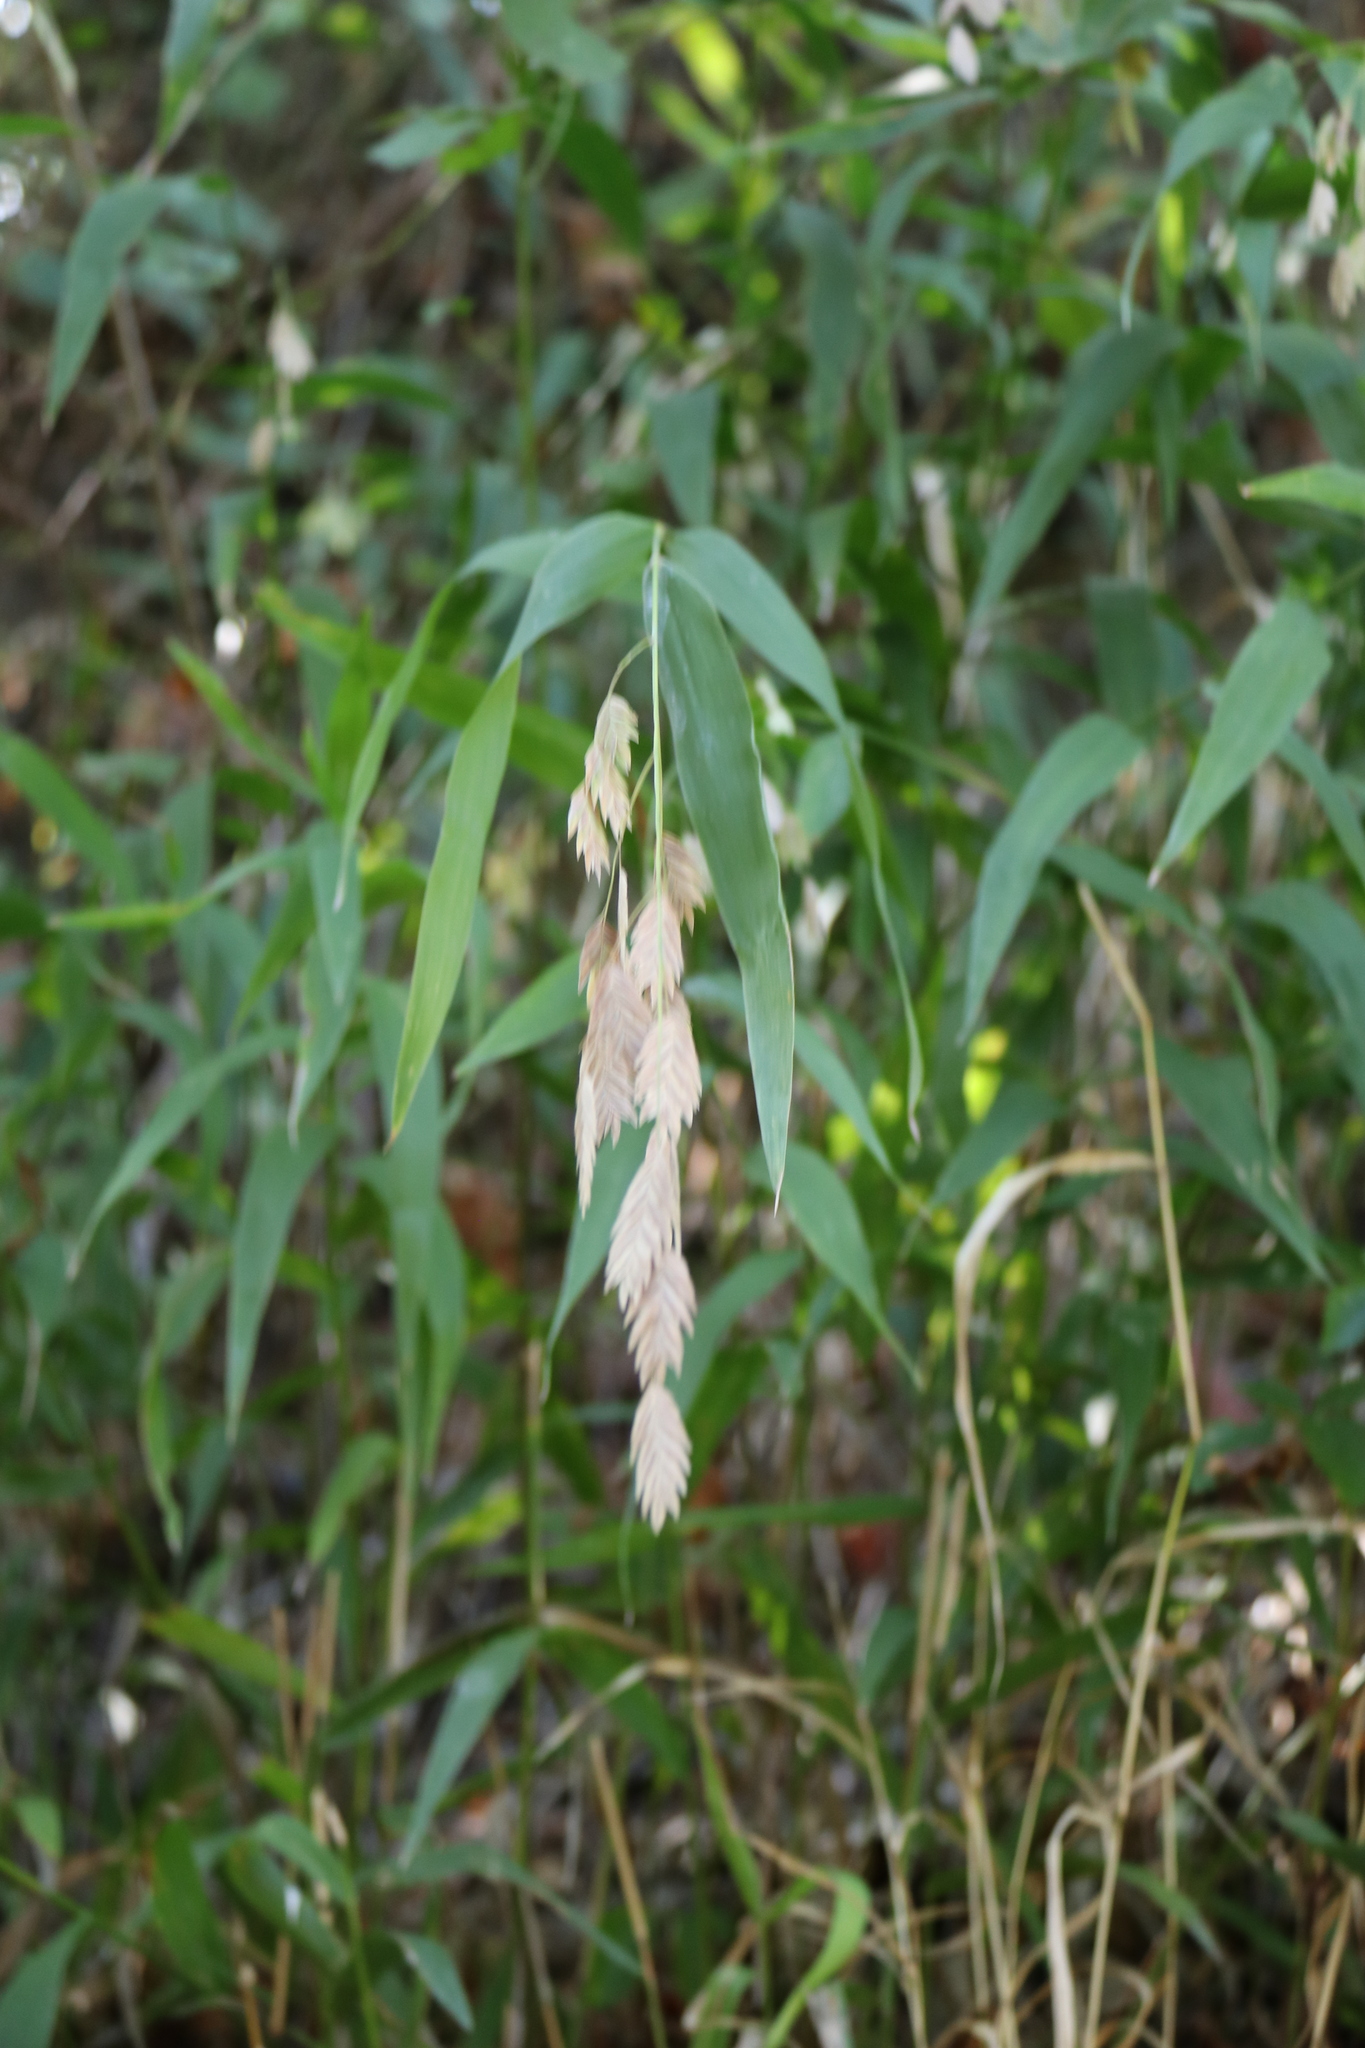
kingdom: Plantae
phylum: Tracheophyta
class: Liliopsida
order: Poales
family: Poaceae
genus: Chasmanthium
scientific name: Chasmanthium latifolium
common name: Broad-leaved chasmanthium
